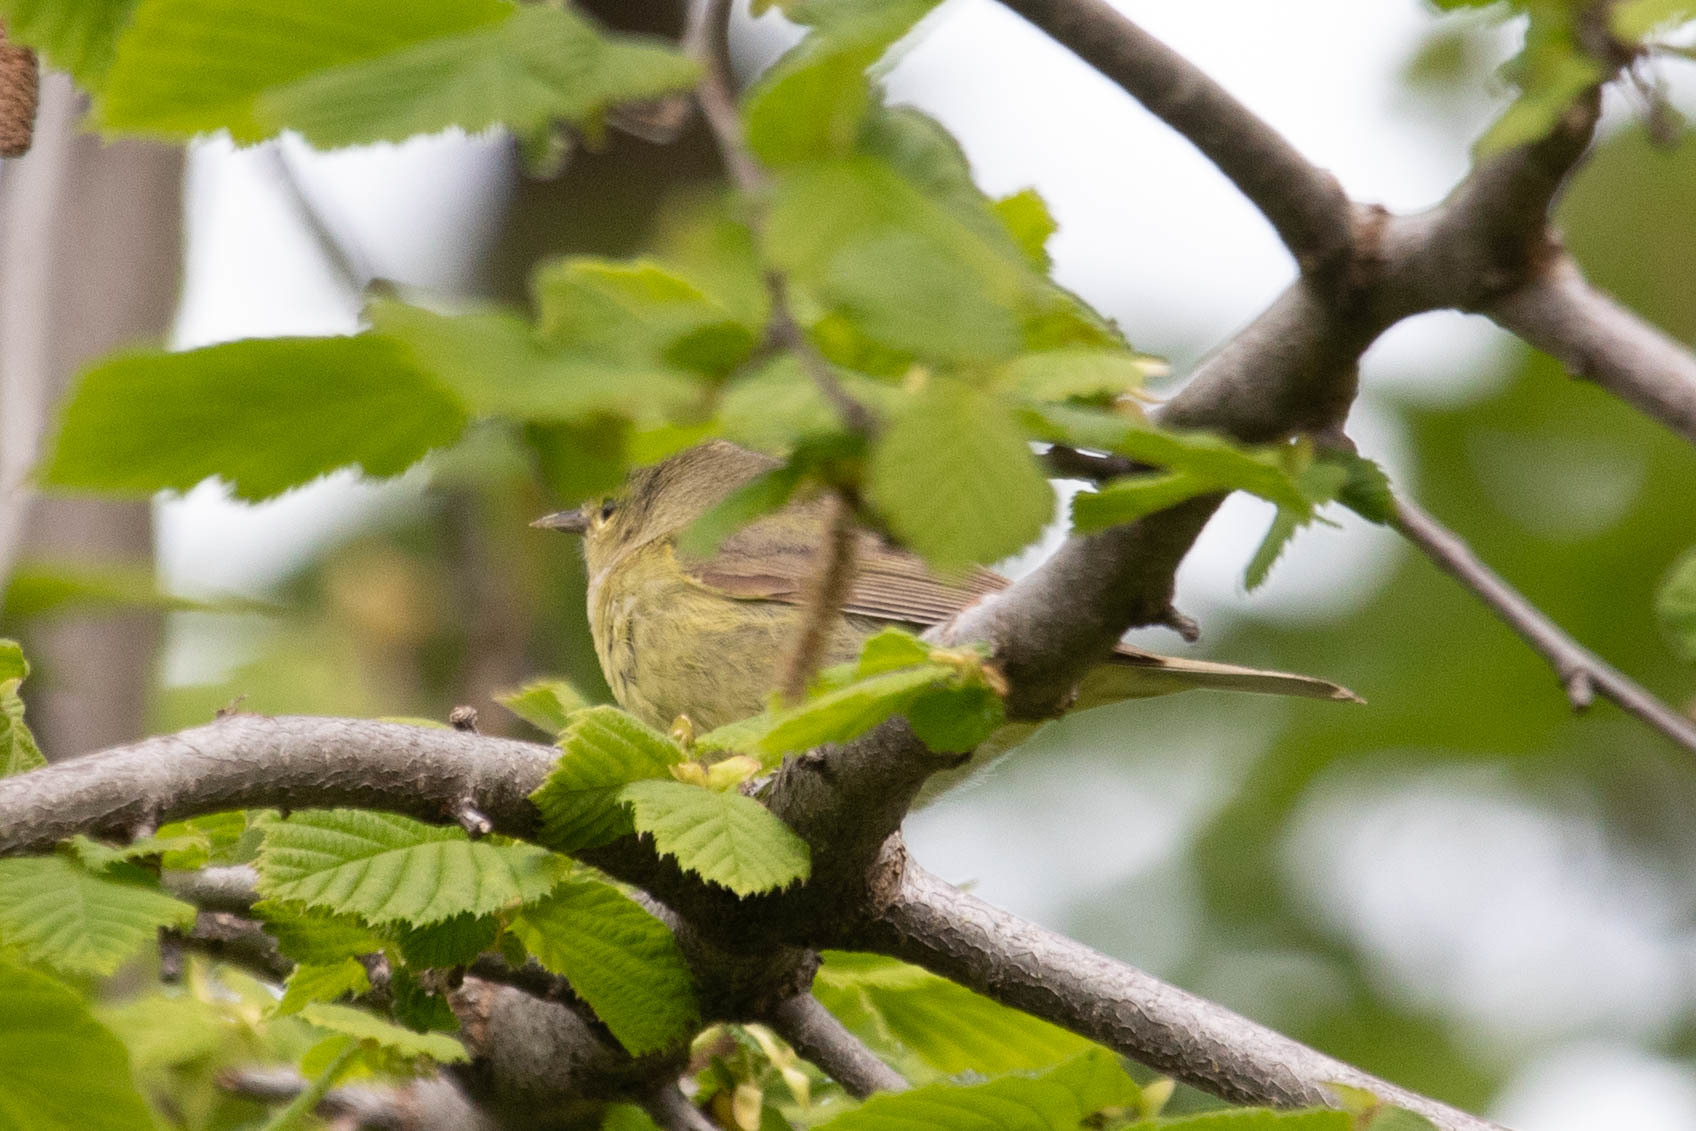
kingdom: Animalia
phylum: Chordata
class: Aves
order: Passeriformes
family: Parulidae
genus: Leiothlypis
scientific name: Leiothlypis celata
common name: Orange-crowned warbler
